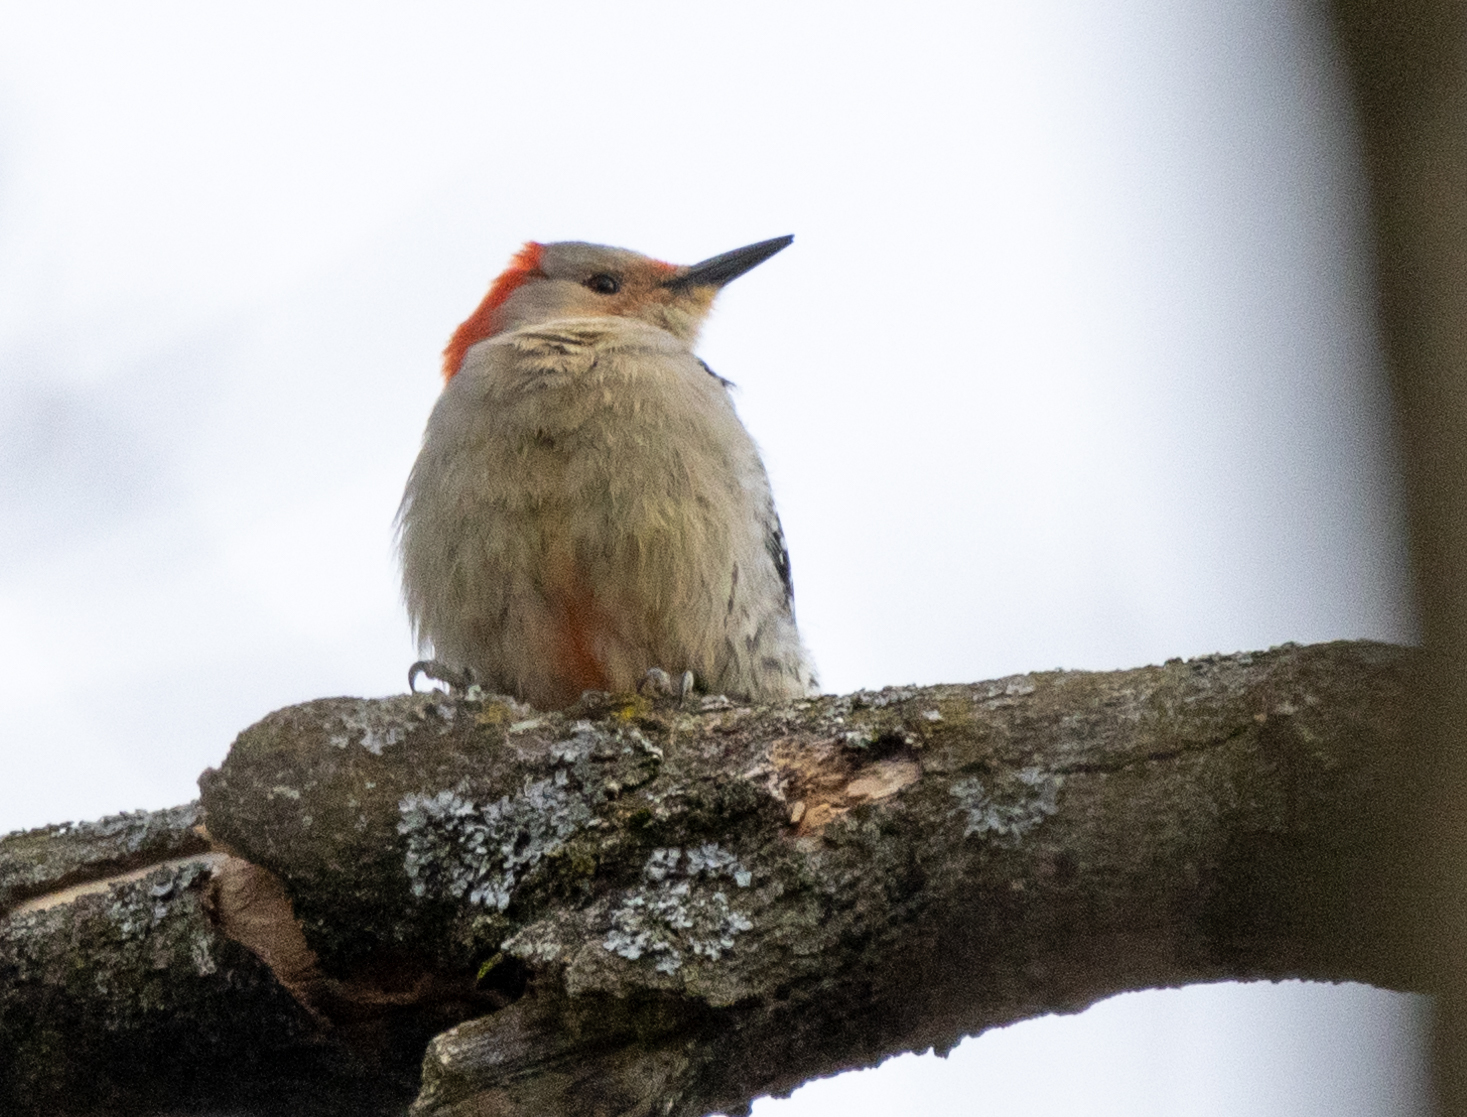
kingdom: Animalia
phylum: Chordata
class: Aves
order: Piciformes
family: Picidae
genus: Melanerpes
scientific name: Melanerpes carolinus
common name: Red-bellied woodpecker
